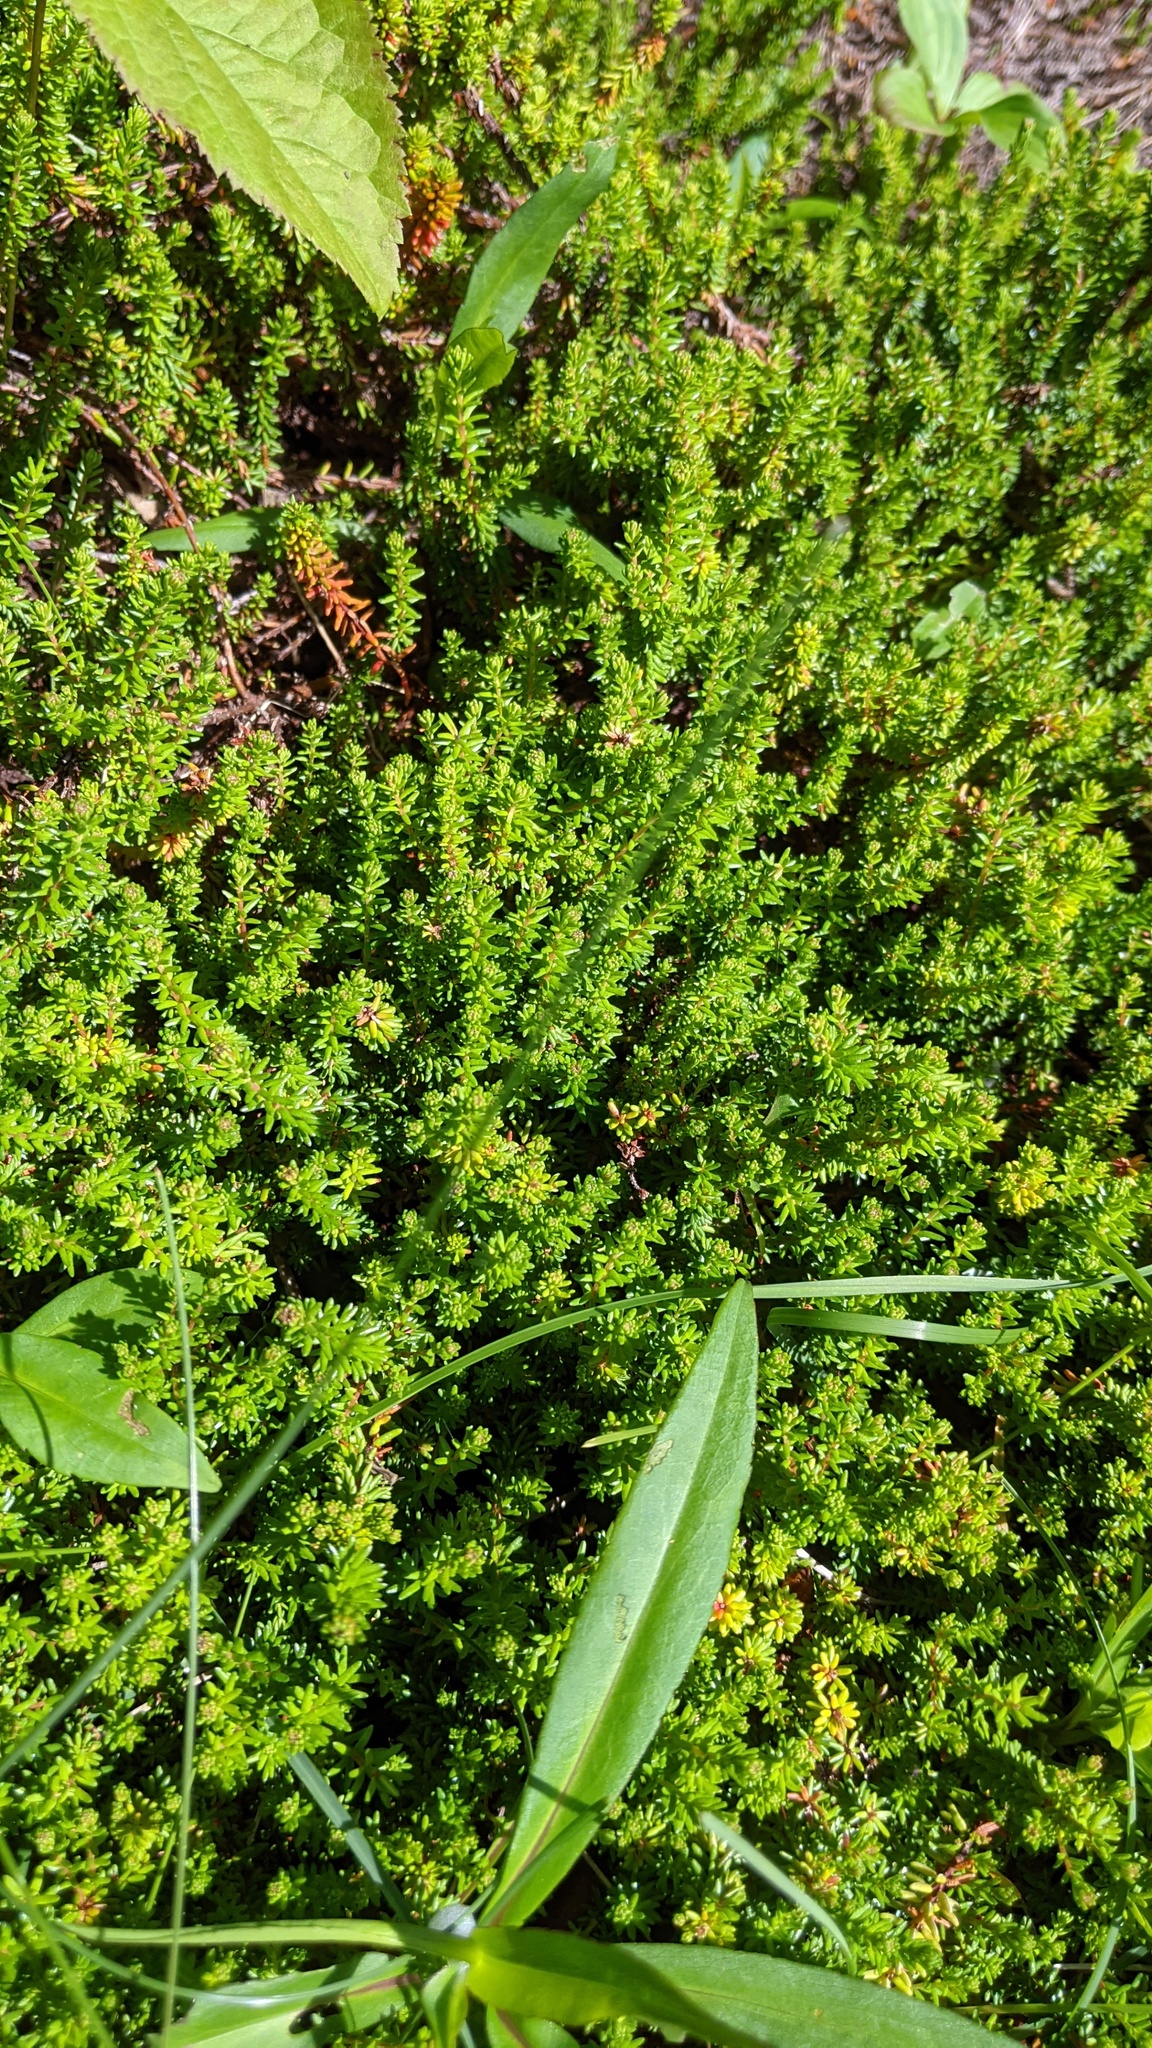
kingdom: Plantae
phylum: Tracheophyta
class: Magnoliopsida
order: Ericales
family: Ericaceae
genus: Empetrum
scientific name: Empetrum nigrum
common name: Black crowberry
